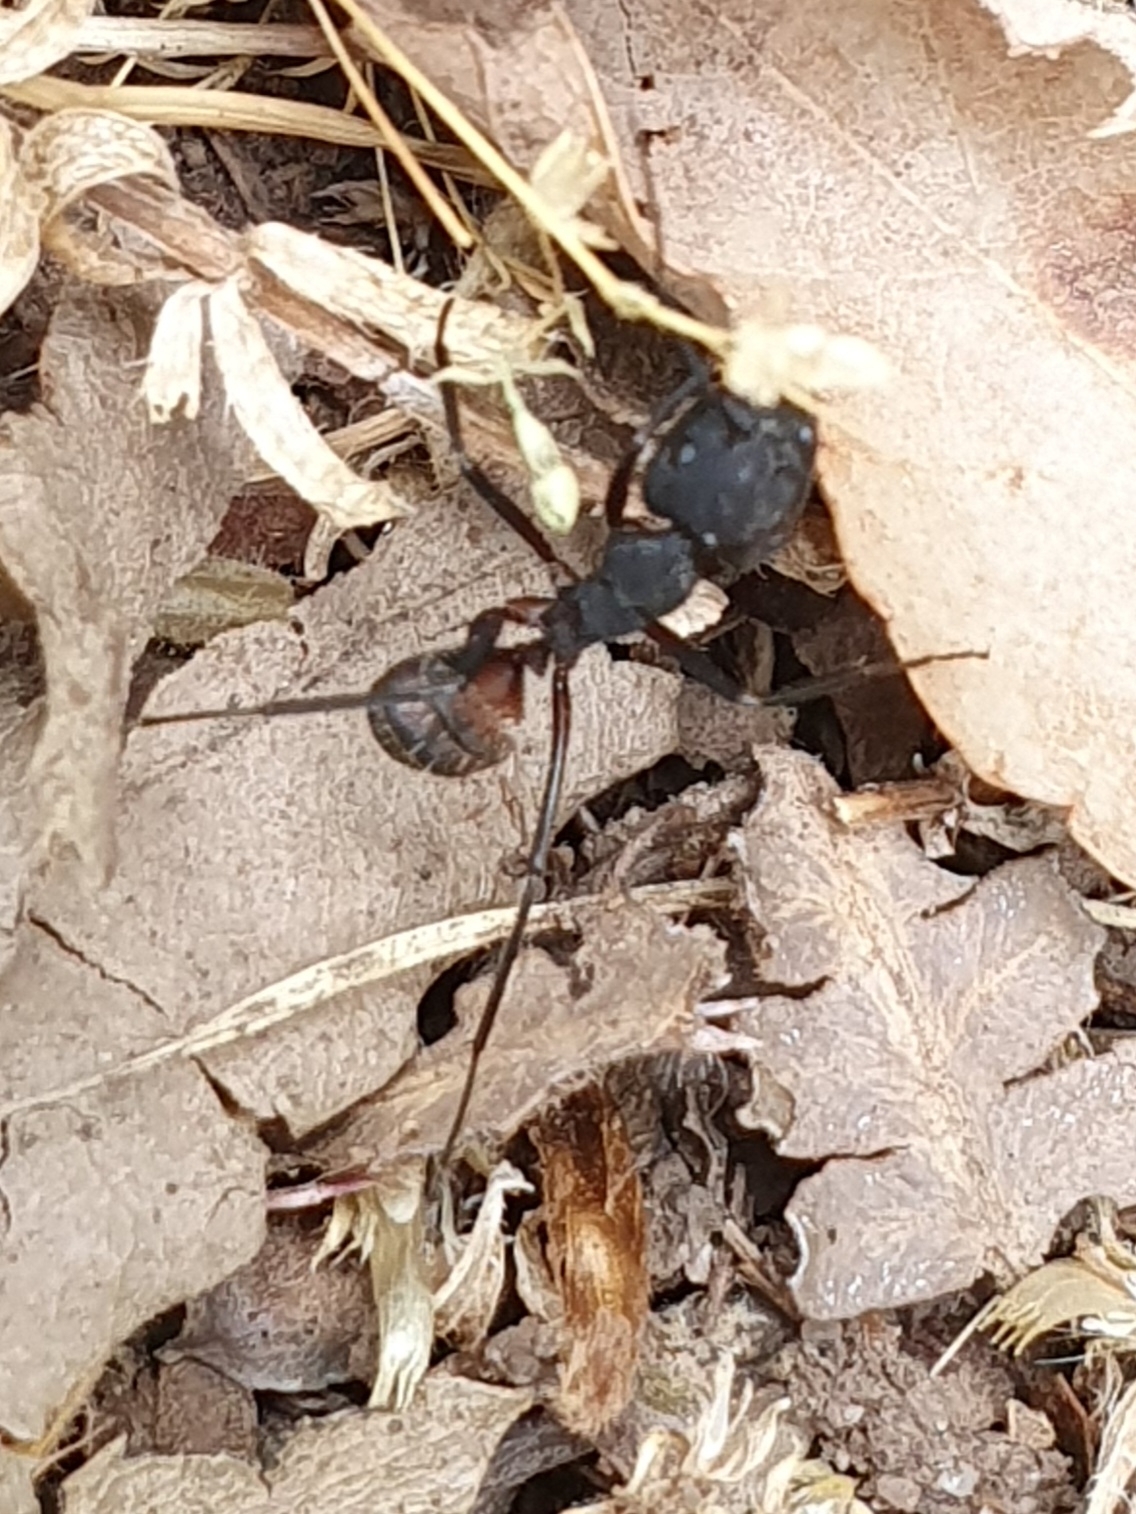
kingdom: Animalia
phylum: Arthropoda
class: Insecta
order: Hymenoptera
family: Formicidae
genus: Camponotus
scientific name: Camponotus cruentatus
